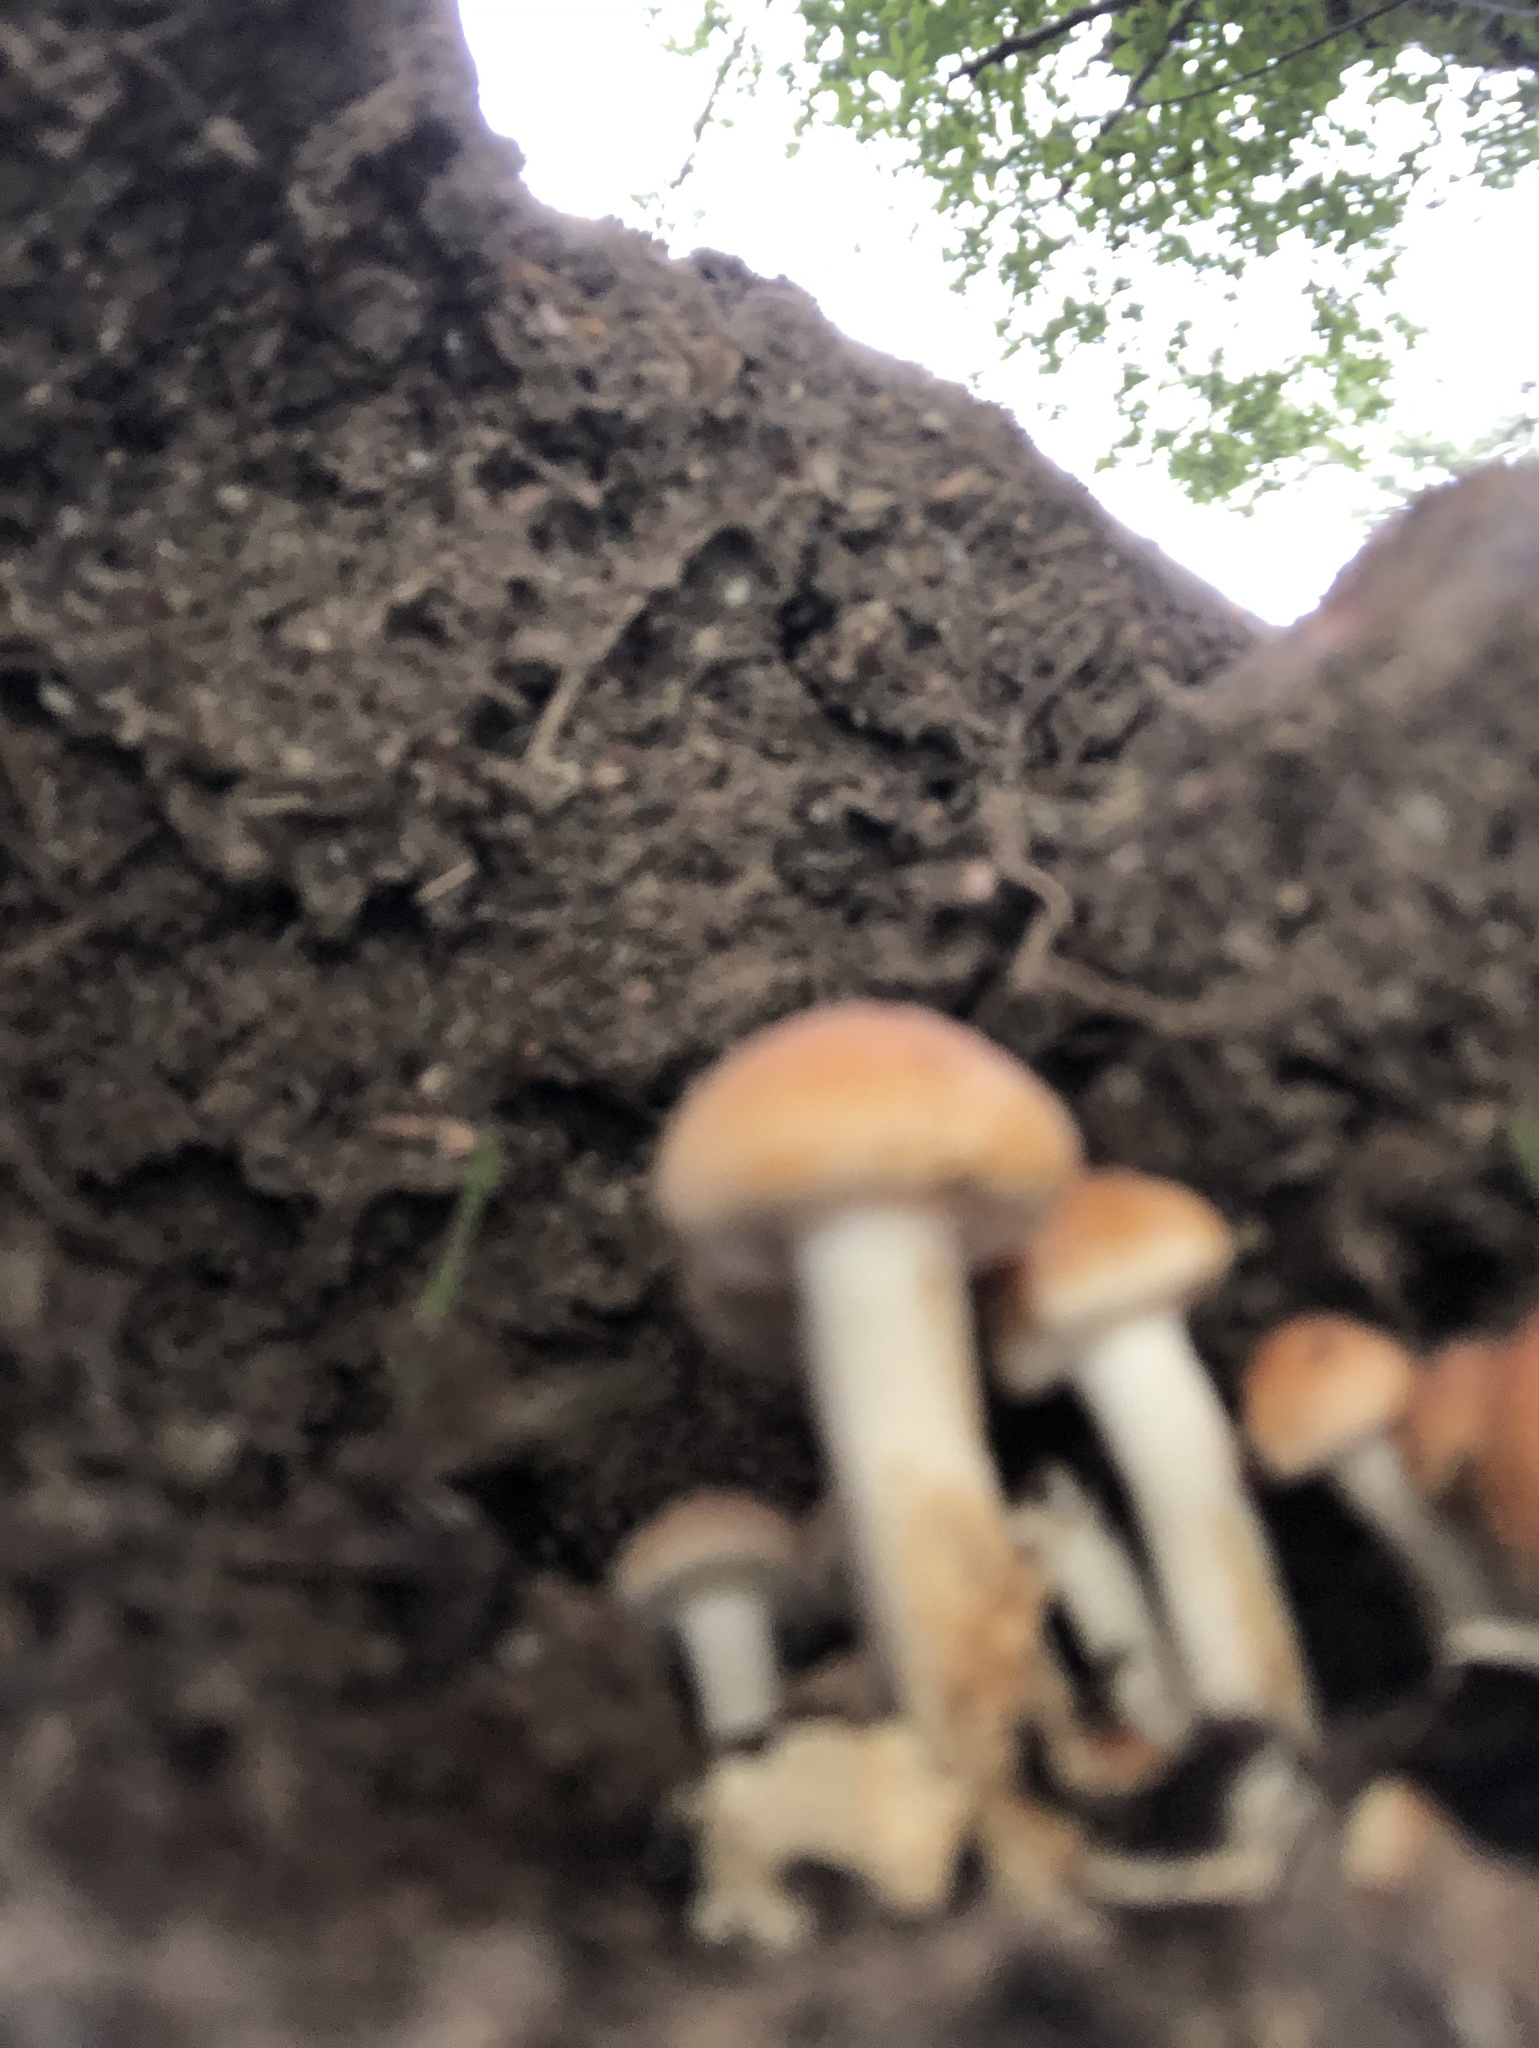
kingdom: Fungi
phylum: Basidiomycota
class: Agaricomycetes
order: Agaricales
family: Strophariaceae
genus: Hypholoma
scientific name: Hypholoma fasciculare
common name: Sulphur tuft
